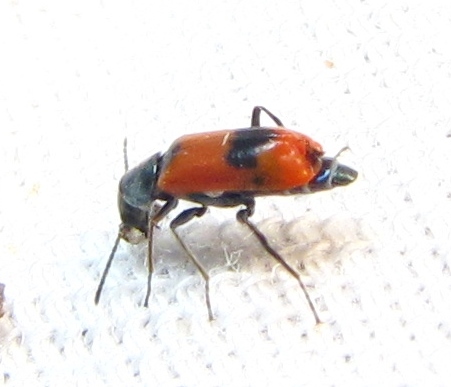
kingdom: Animalia
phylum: Arthropoda
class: Insecta
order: Coleoptera
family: Melyridae
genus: Anthocomus
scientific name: Anthocomus equestris
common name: Black-banded soft-winged flower beetle
